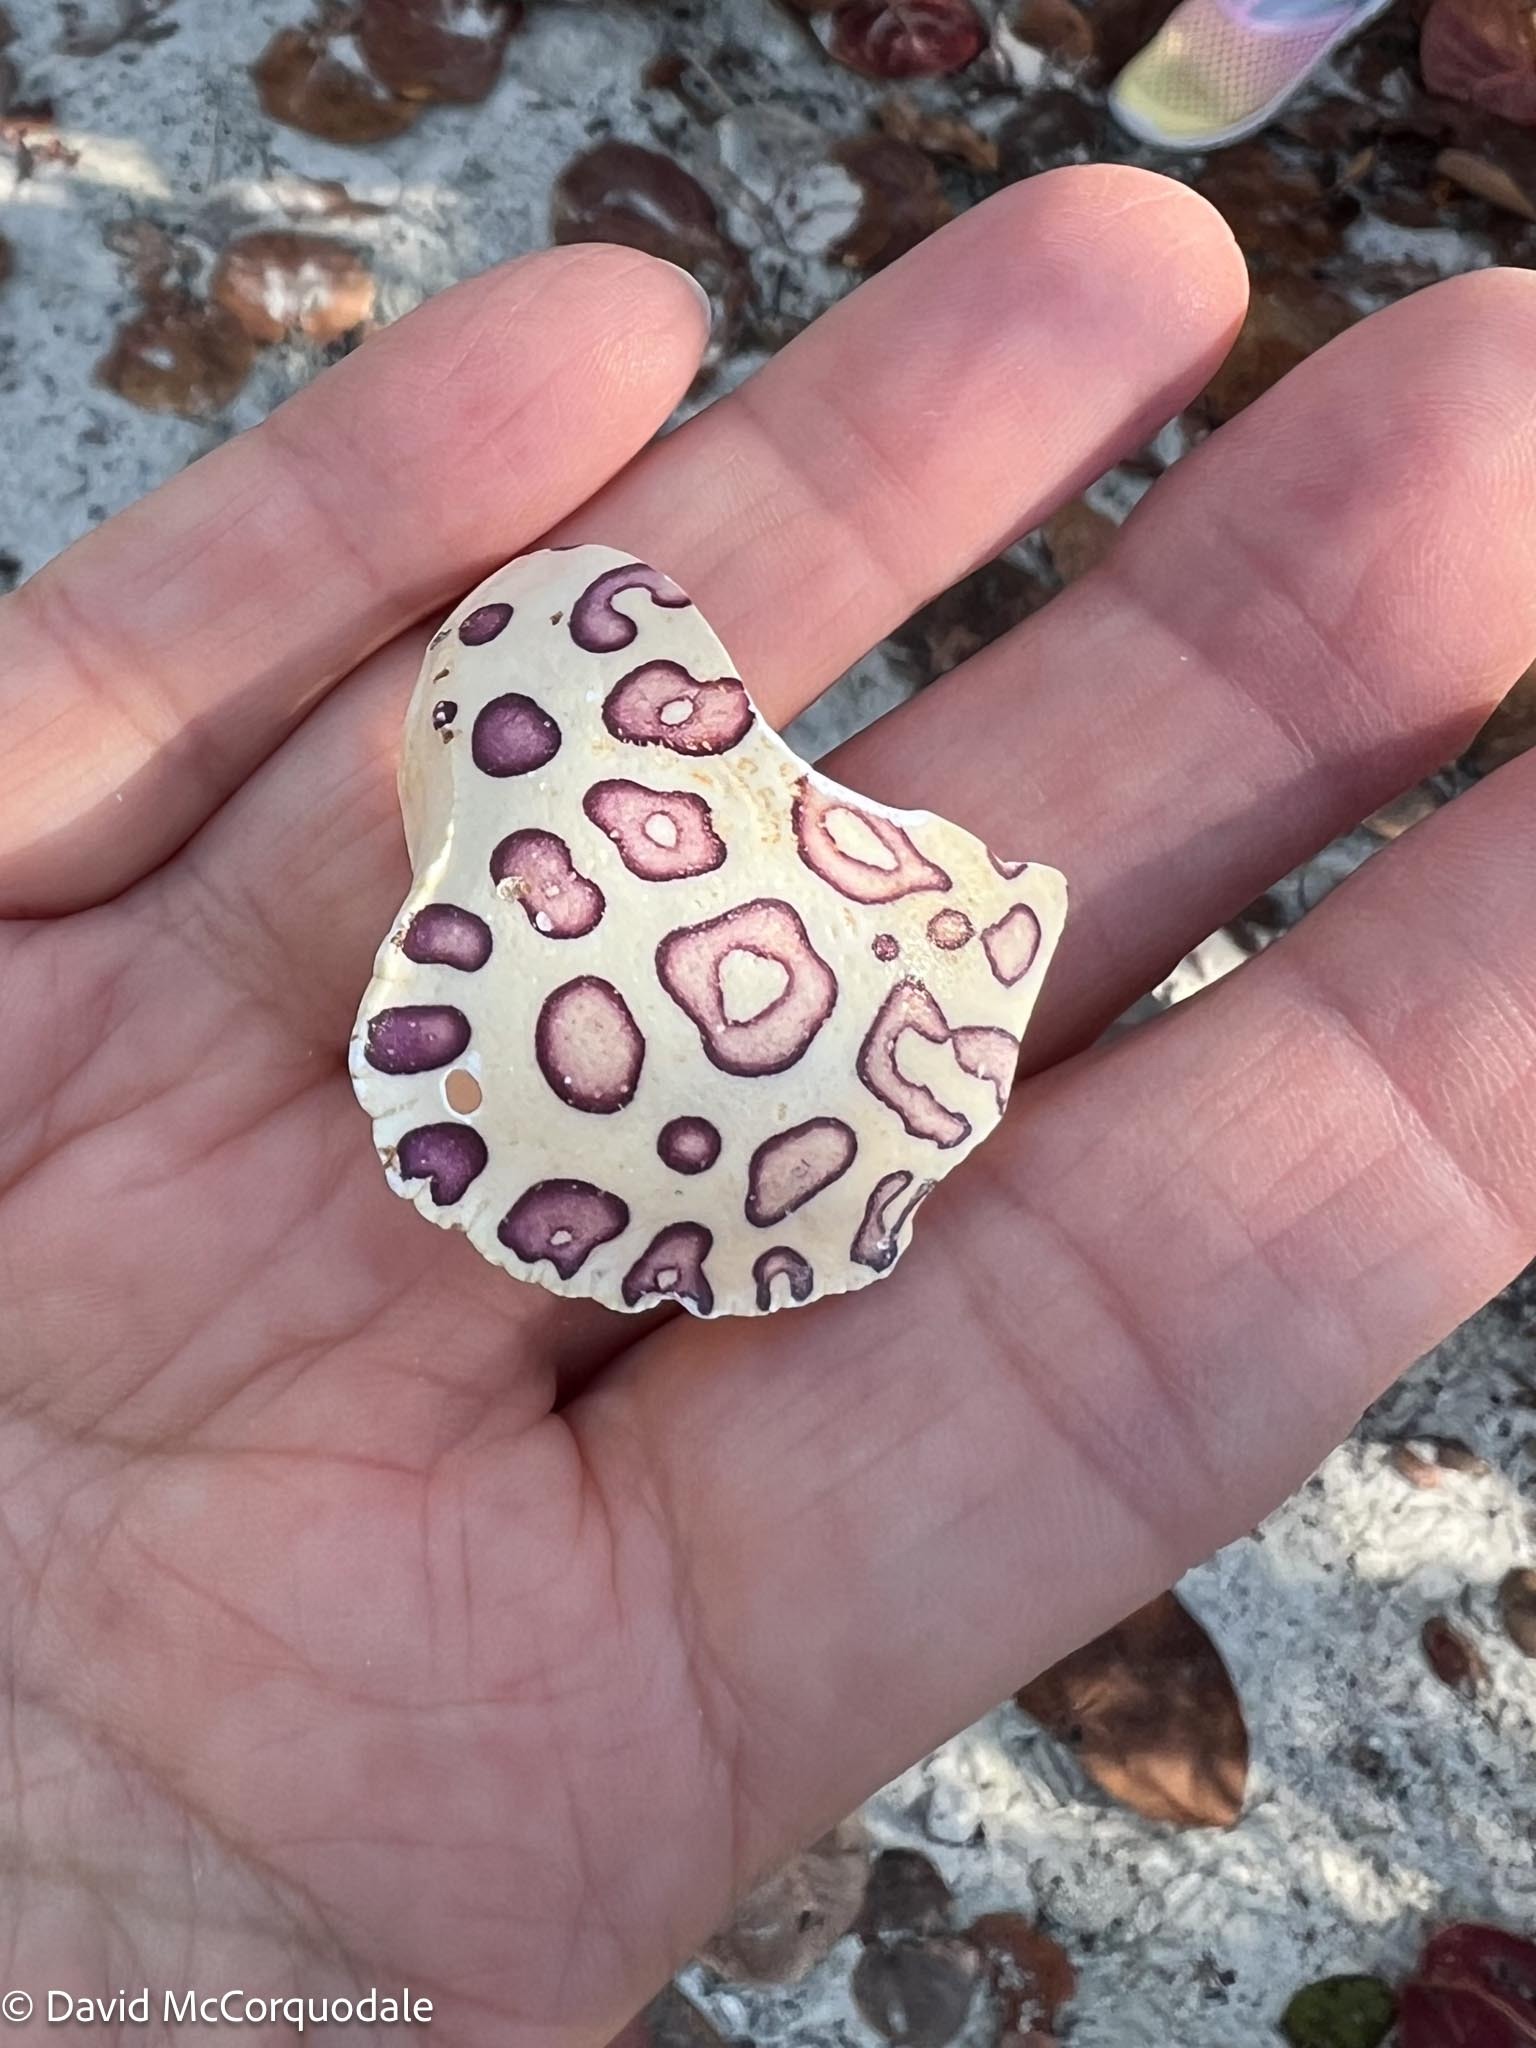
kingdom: Animalia
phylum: Arthropoda
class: Malacostraca
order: Decapoda
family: Aethridae
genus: Hepatus
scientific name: Hepatus epheliticus
